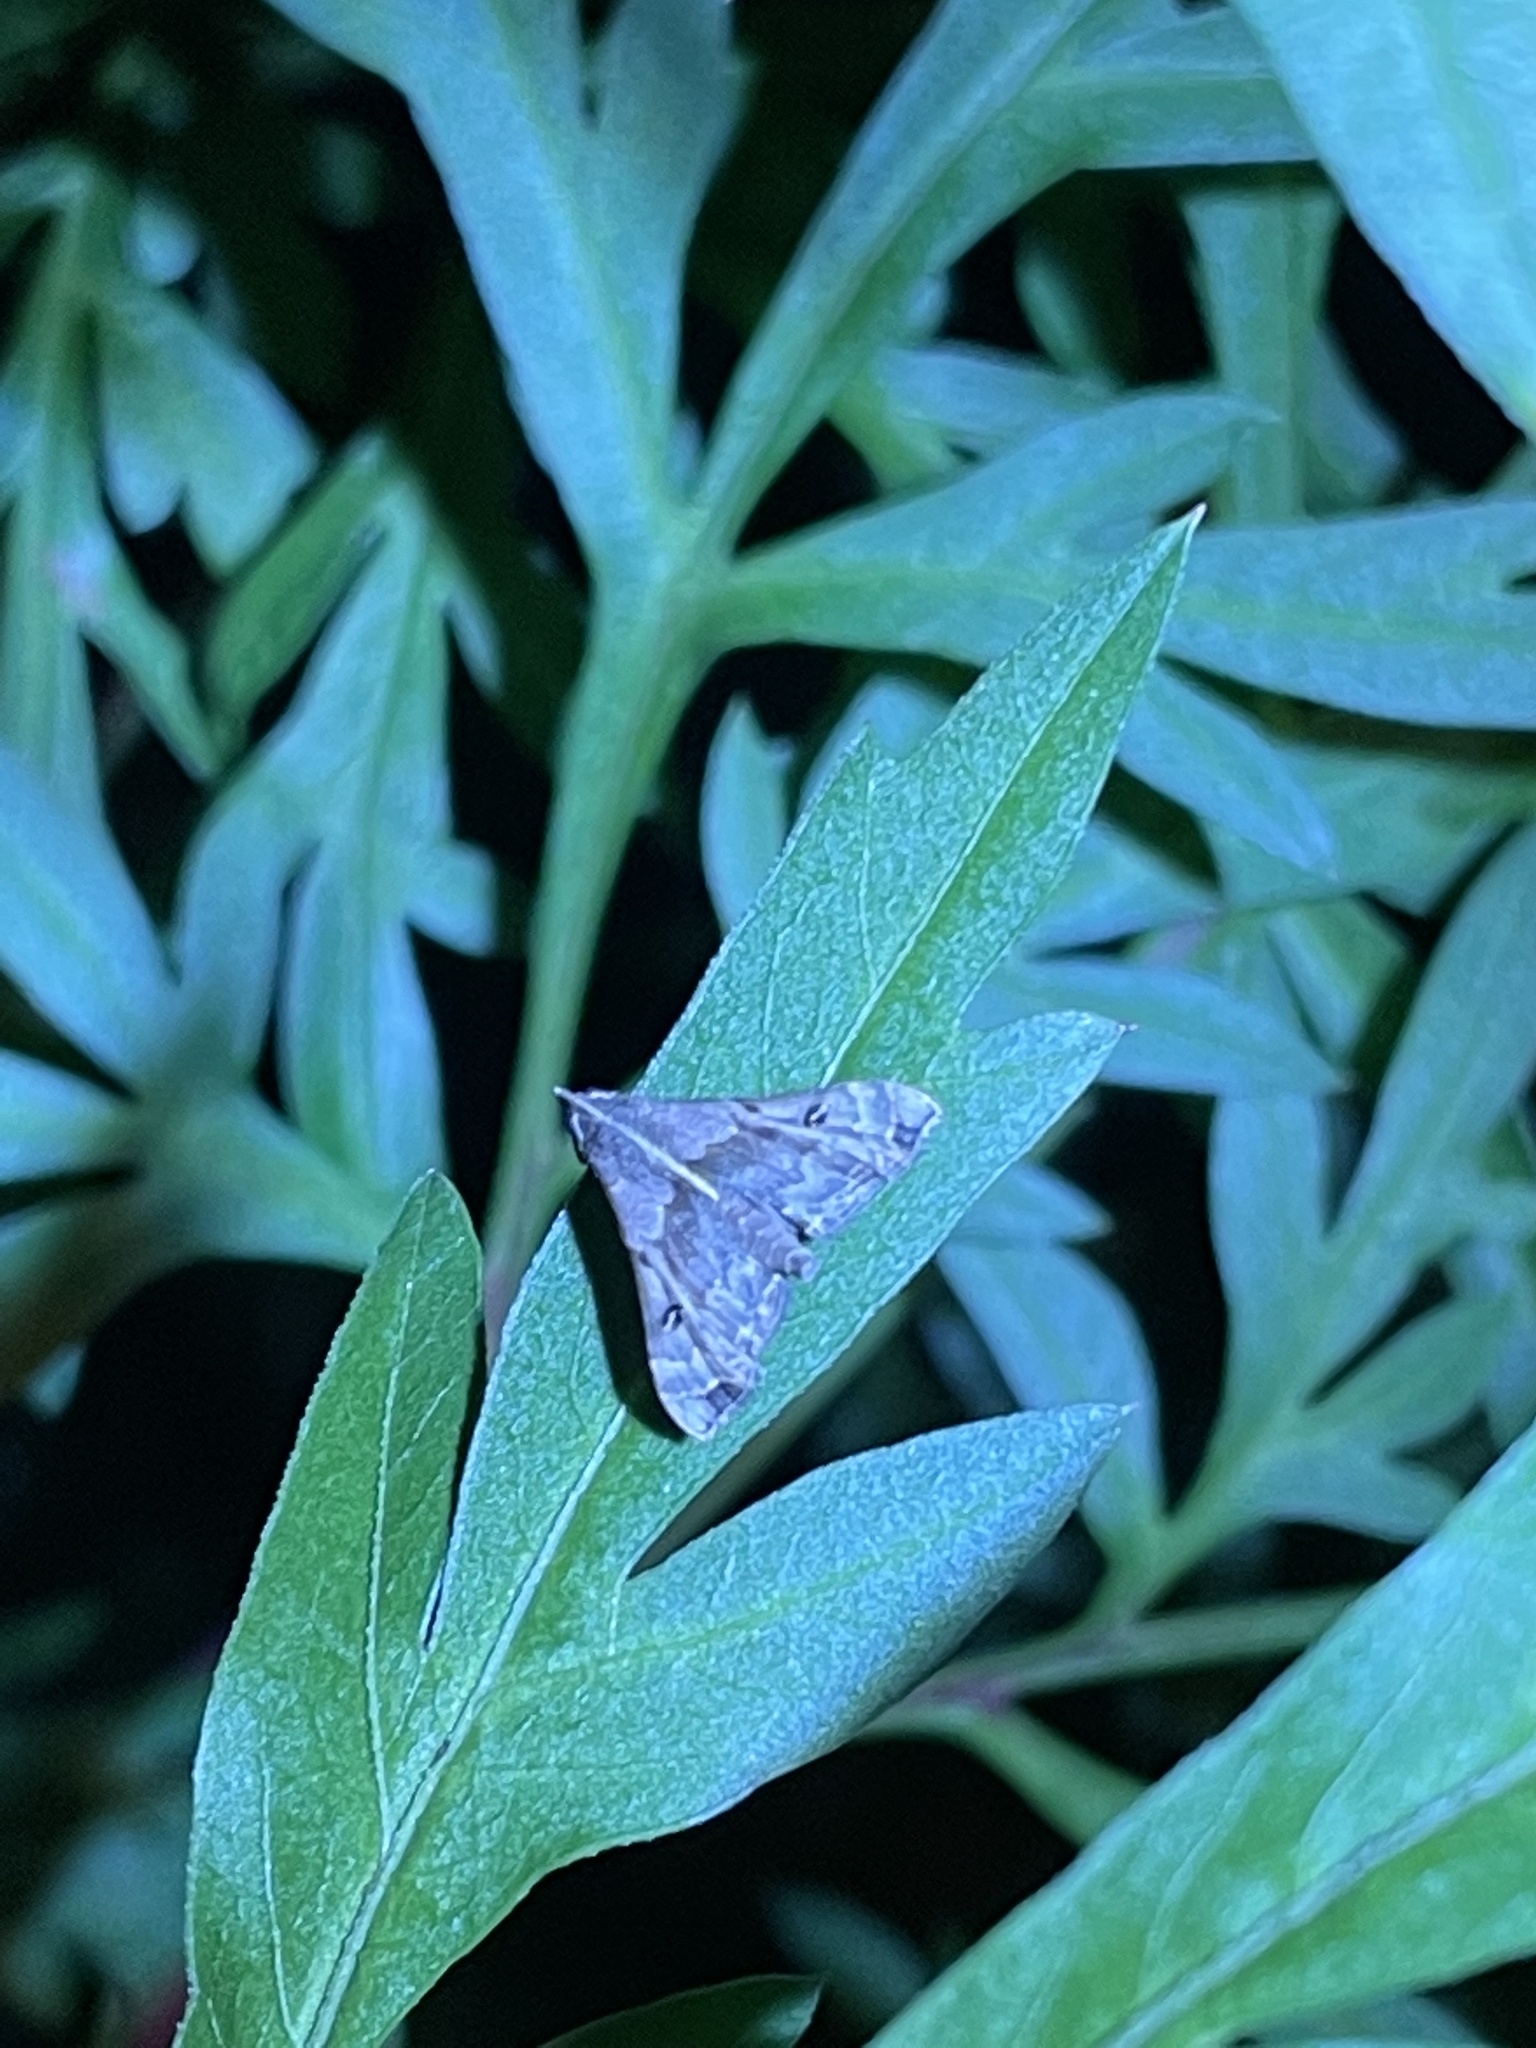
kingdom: Animalia
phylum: Arthropoda
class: Insecta
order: Lepidoptera
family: Erebidae
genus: Palthis
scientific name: Palthis asopialis
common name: Faint-spotted palthis moth
